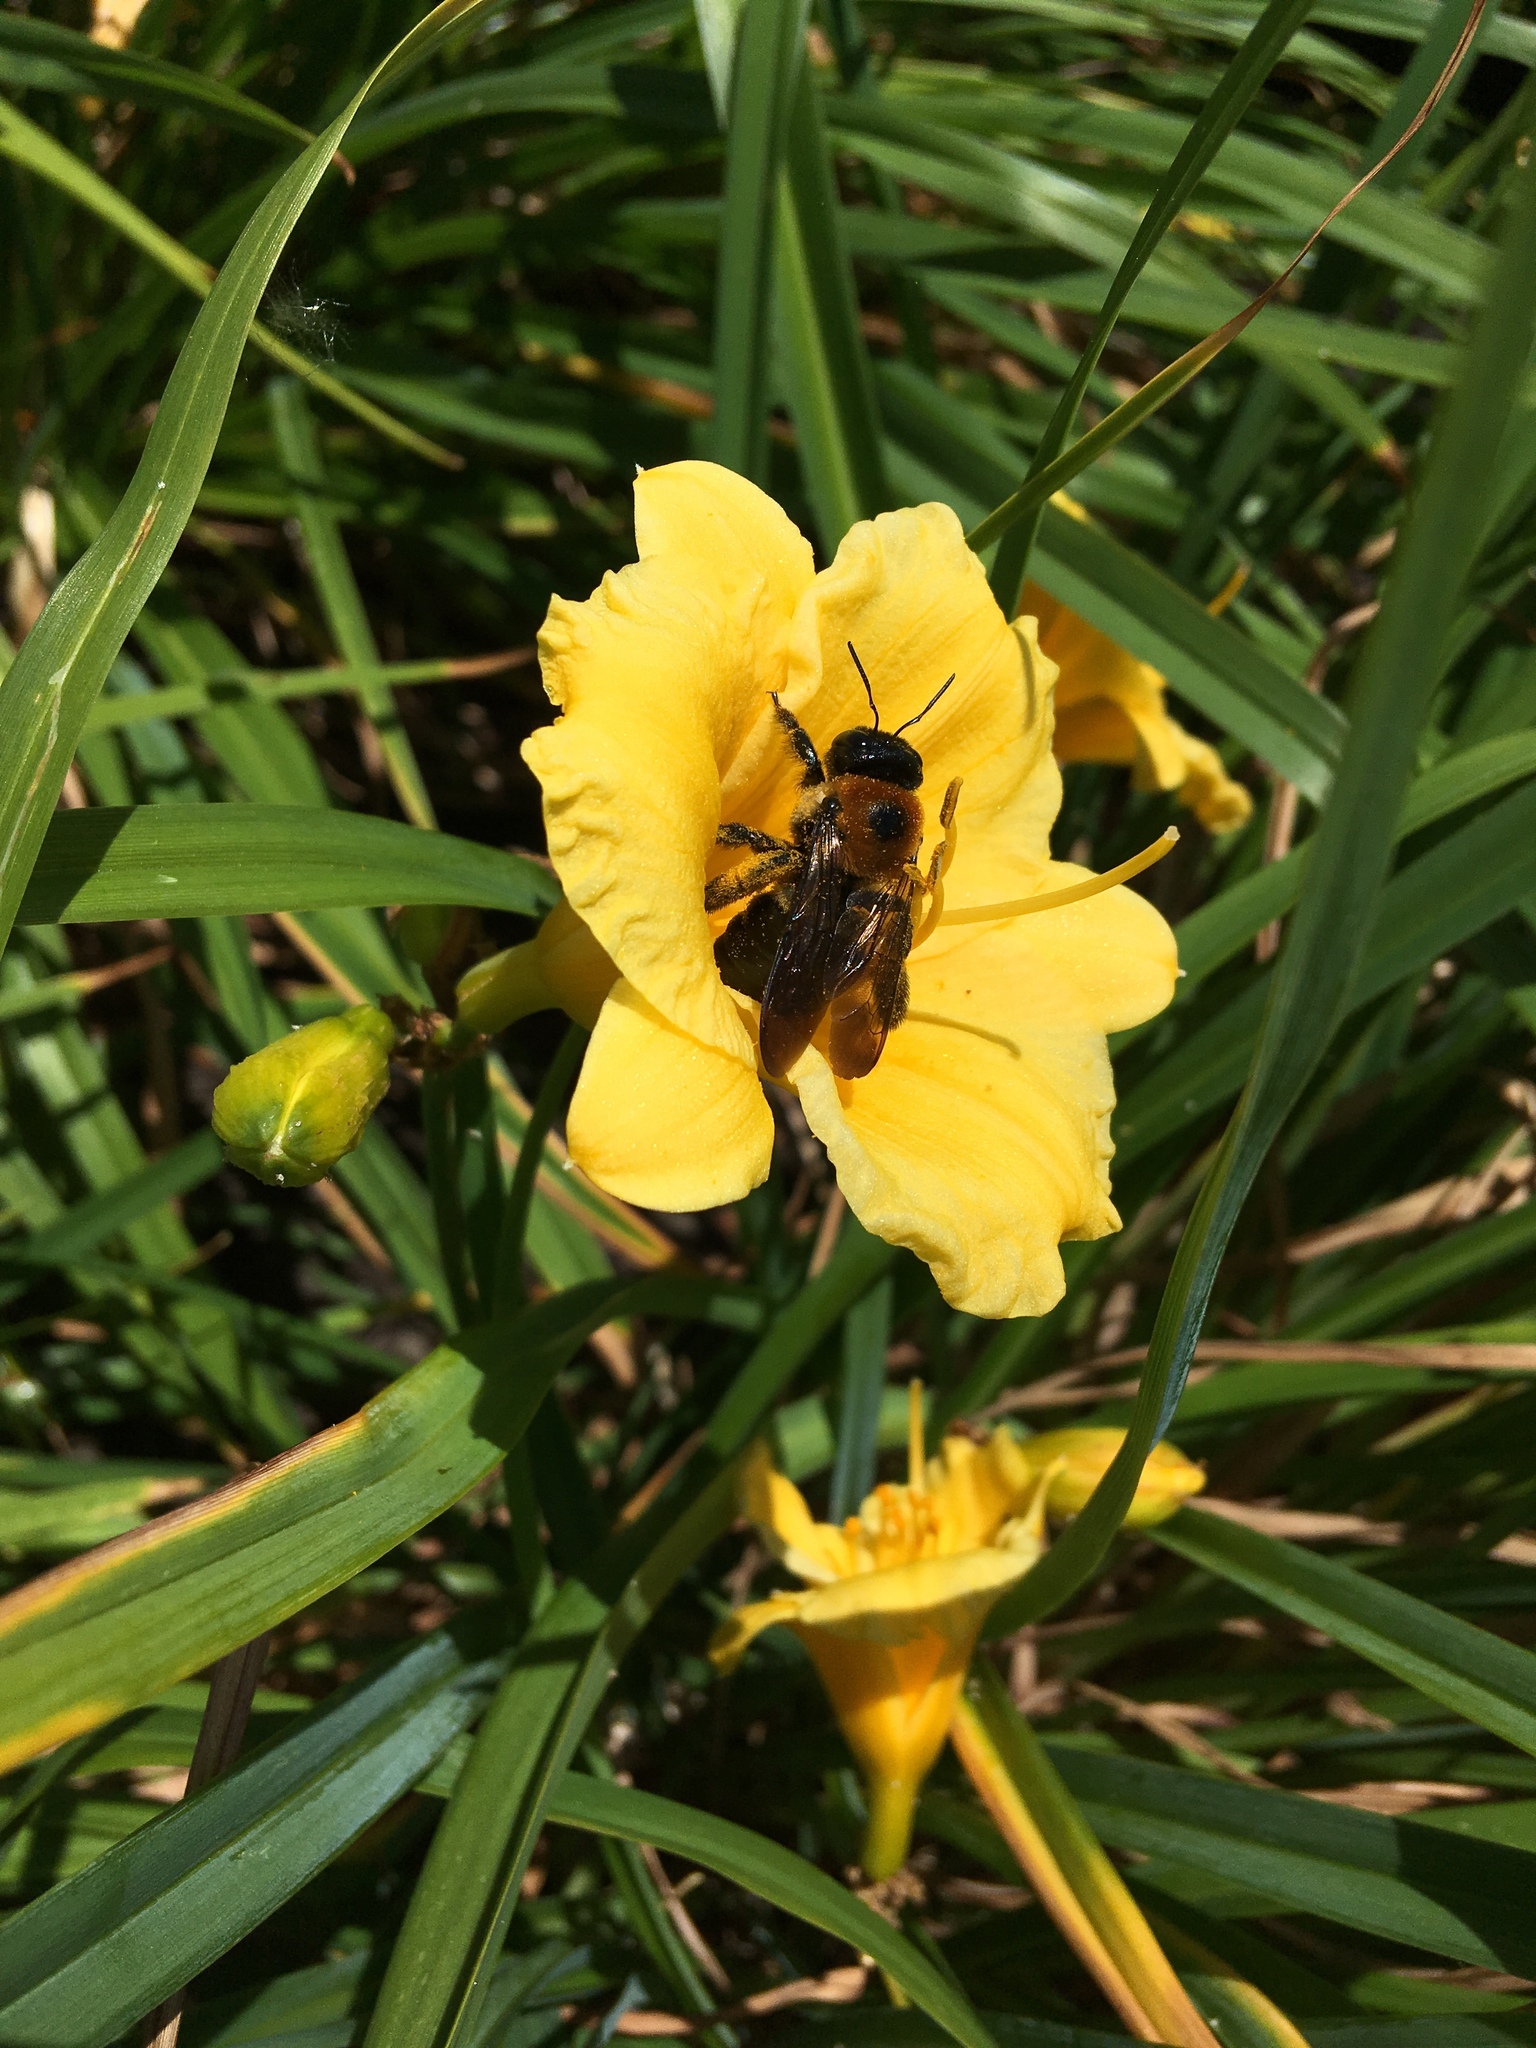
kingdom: Animalia
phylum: Arthropoda
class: Insecta
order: Hymenoptera
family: Apidae
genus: Xylocopa
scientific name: Xylocopa virginica
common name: Carpenter bee
